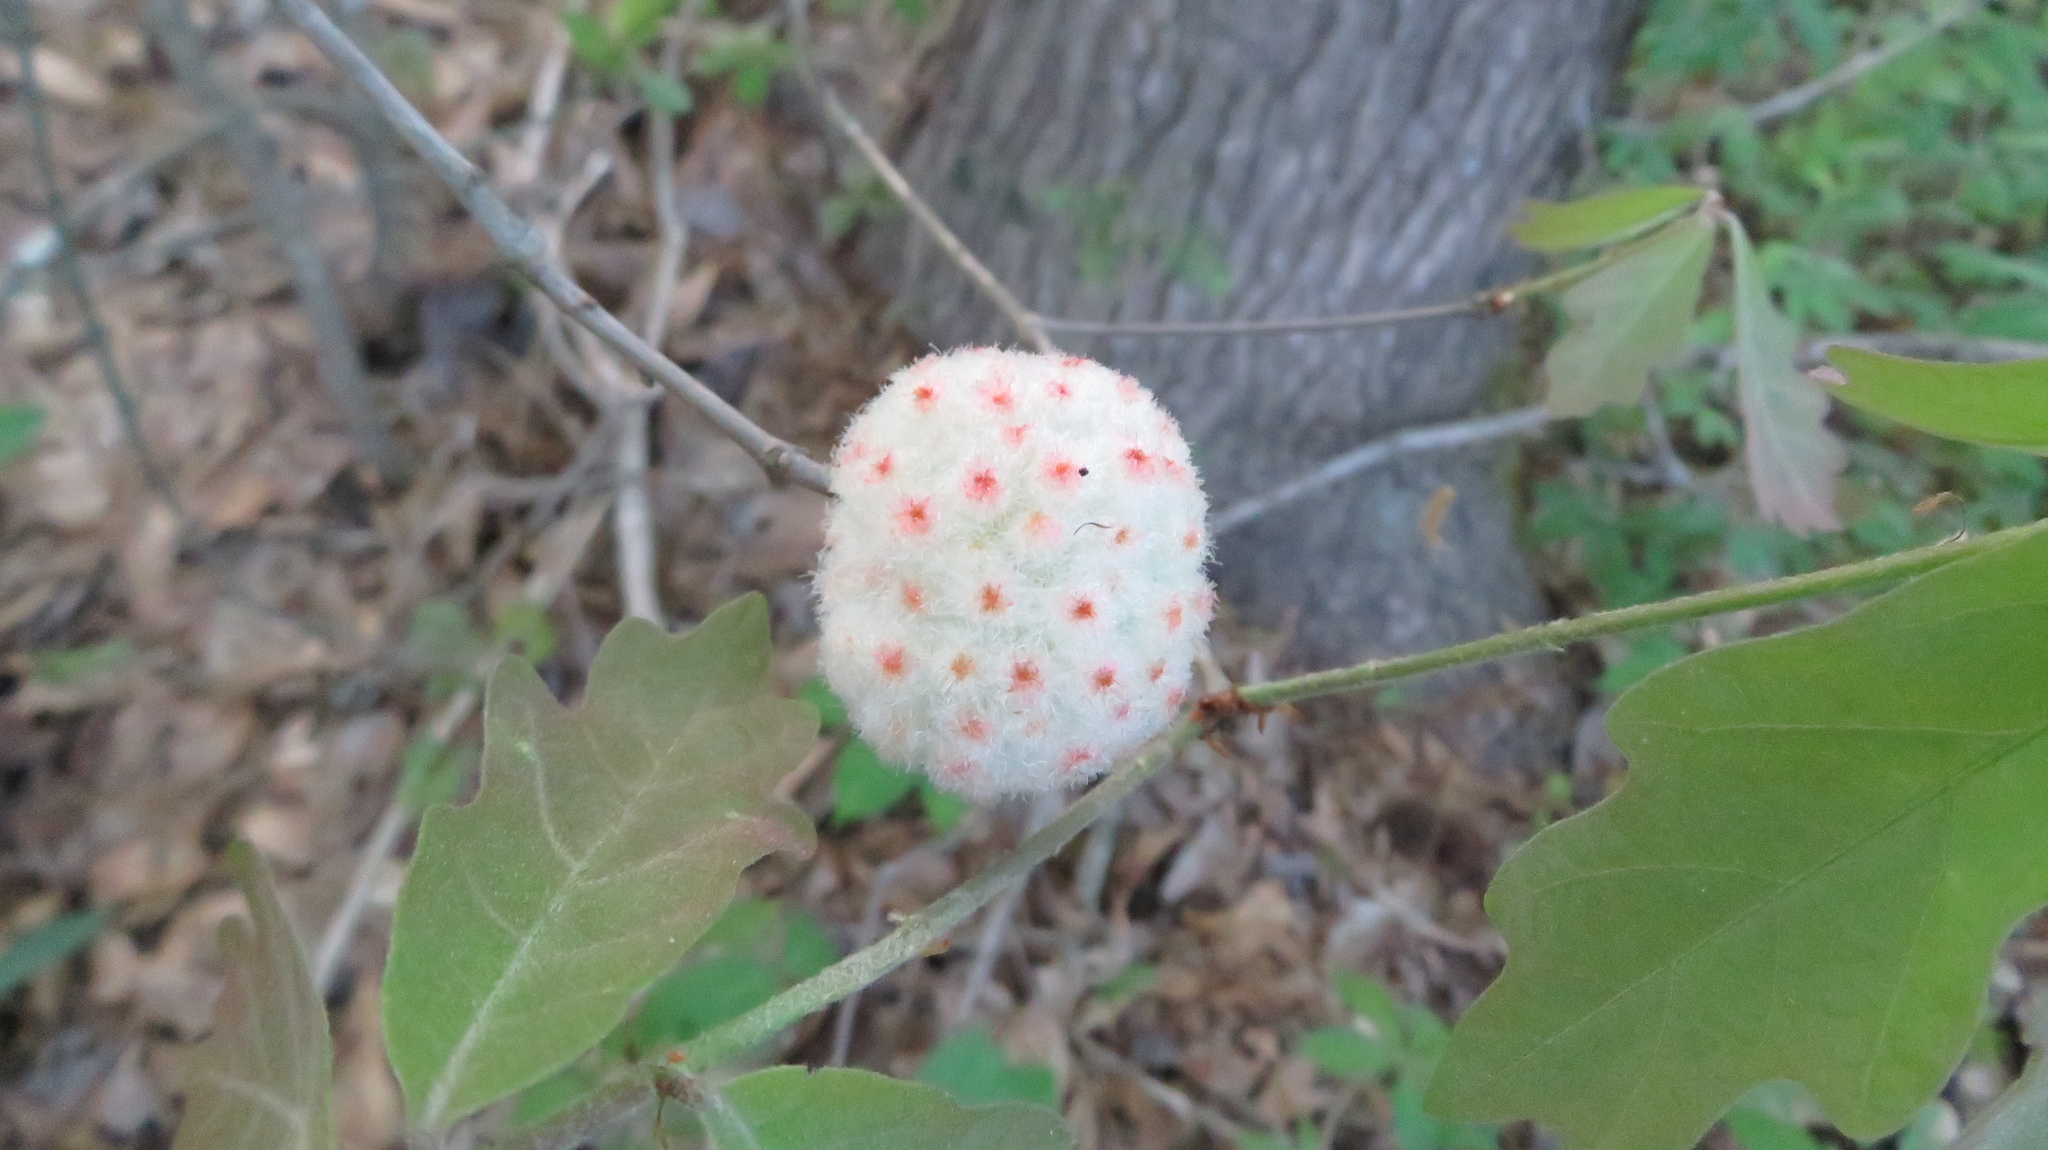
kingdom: Animalia
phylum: Arthropoda
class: Insecta
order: Hymenoptera
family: Cynipidae
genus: Callirhytis
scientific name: Callirhytis
